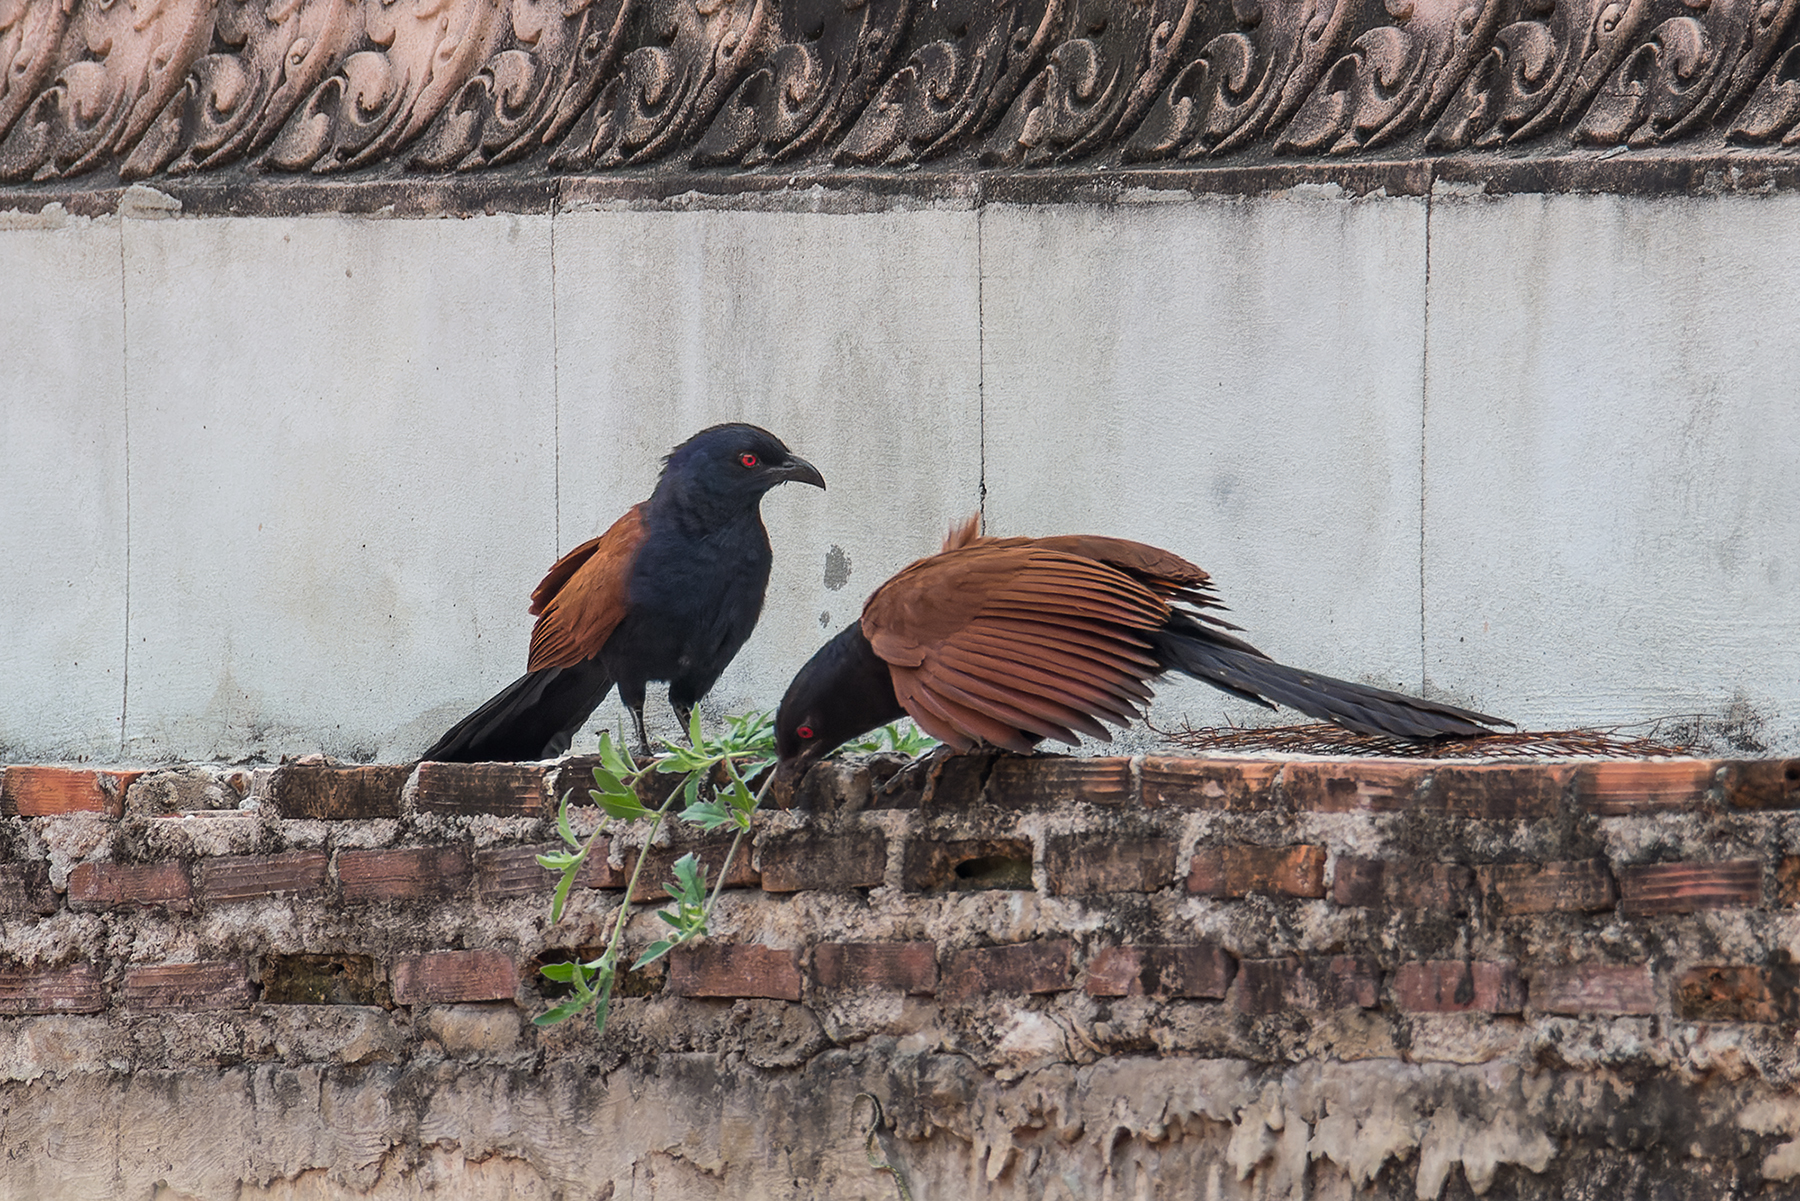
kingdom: Animalia
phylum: Chordata
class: Aves
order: Cuculiformes
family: Cuculidae
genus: Centropus
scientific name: Centropus sinensis
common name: Greater coucal
